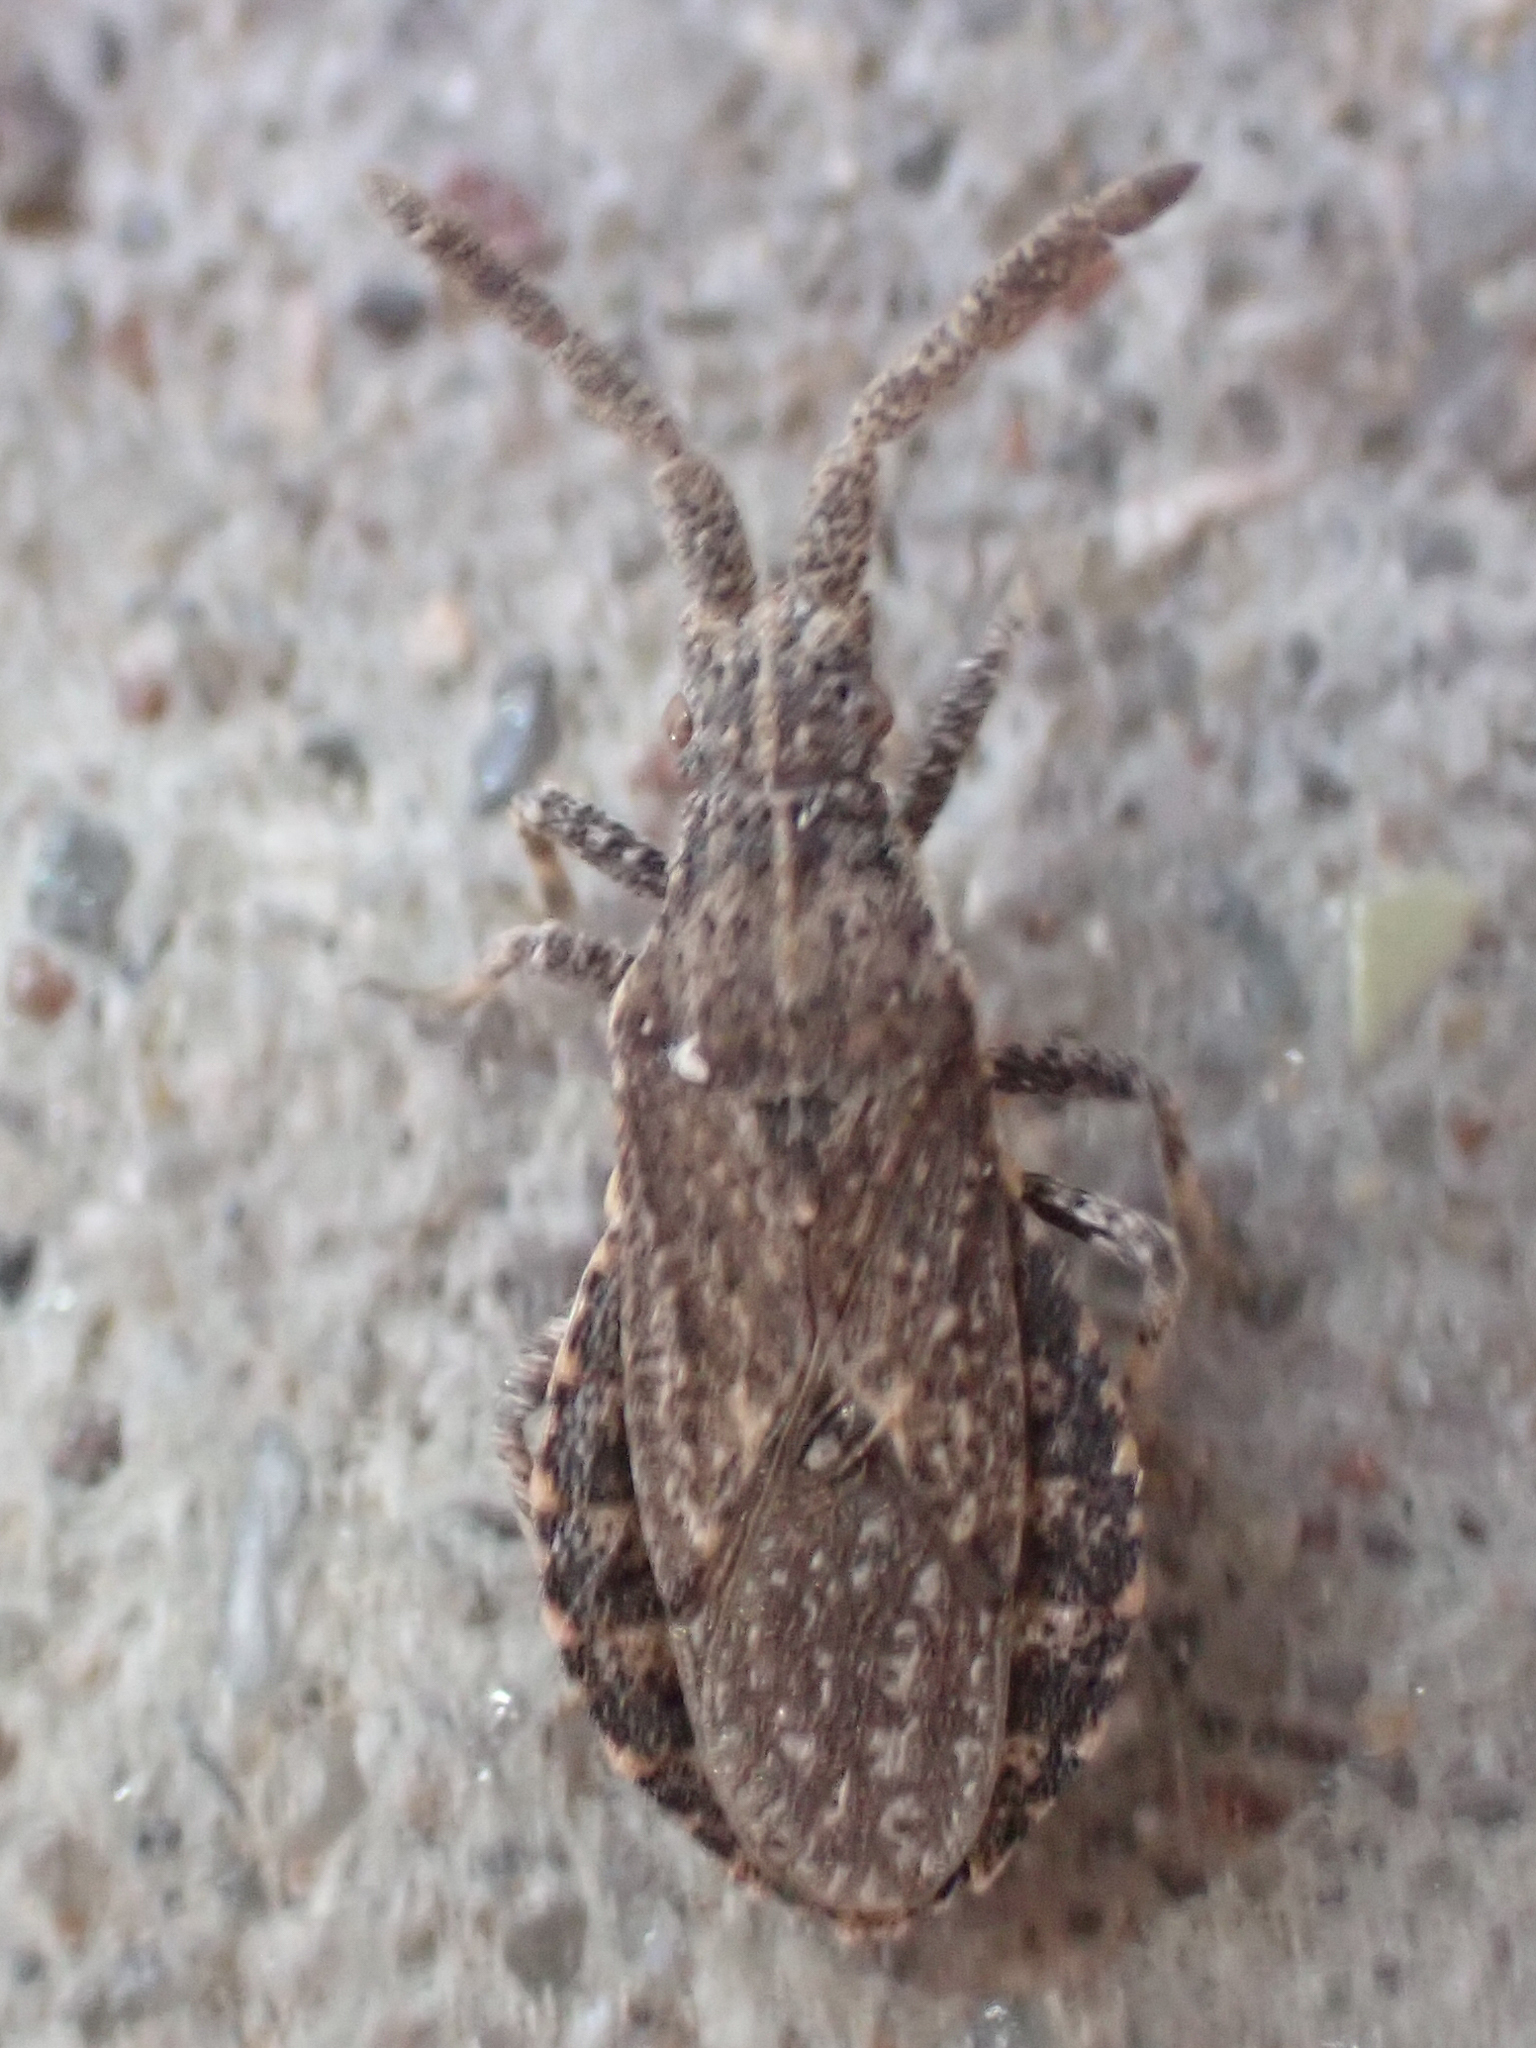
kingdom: Animalia
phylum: Arthropoda
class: Insecta
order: Hemiptera
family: Coreidae
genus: Scolopocerus
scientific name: Scolopocerus secundarius
